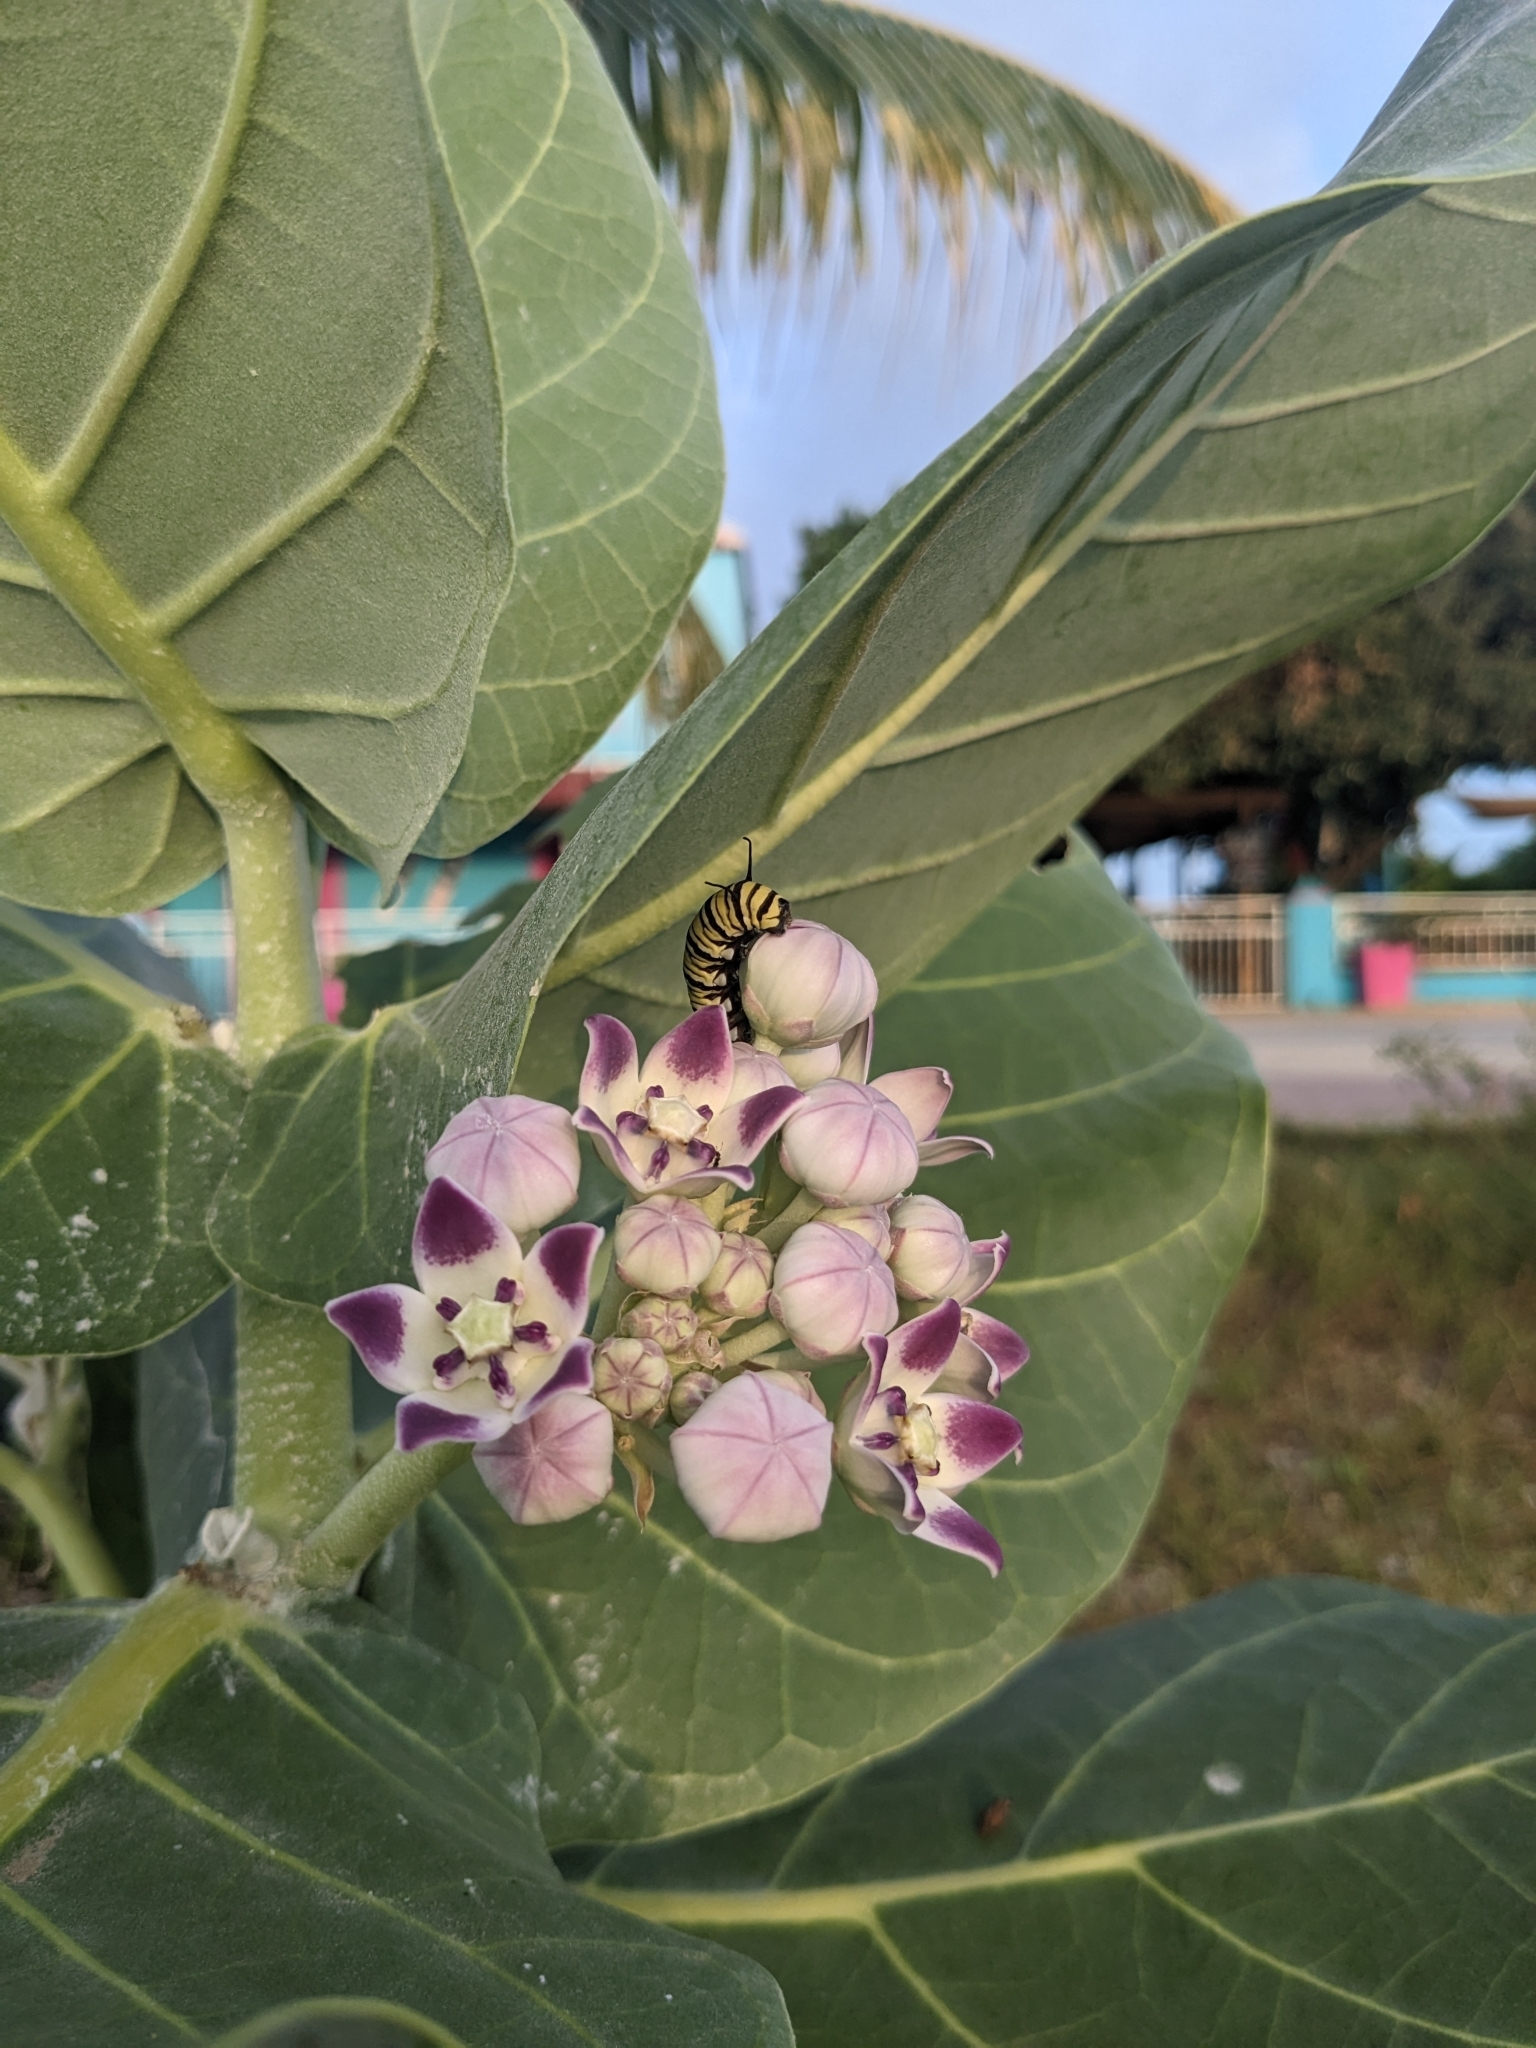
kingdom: Animalia
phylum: Arthropoda
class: Insecta
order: Lepidoptera
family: Nymphalidae
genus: Danaus
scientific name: Danaus plexippus
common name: Monarch
